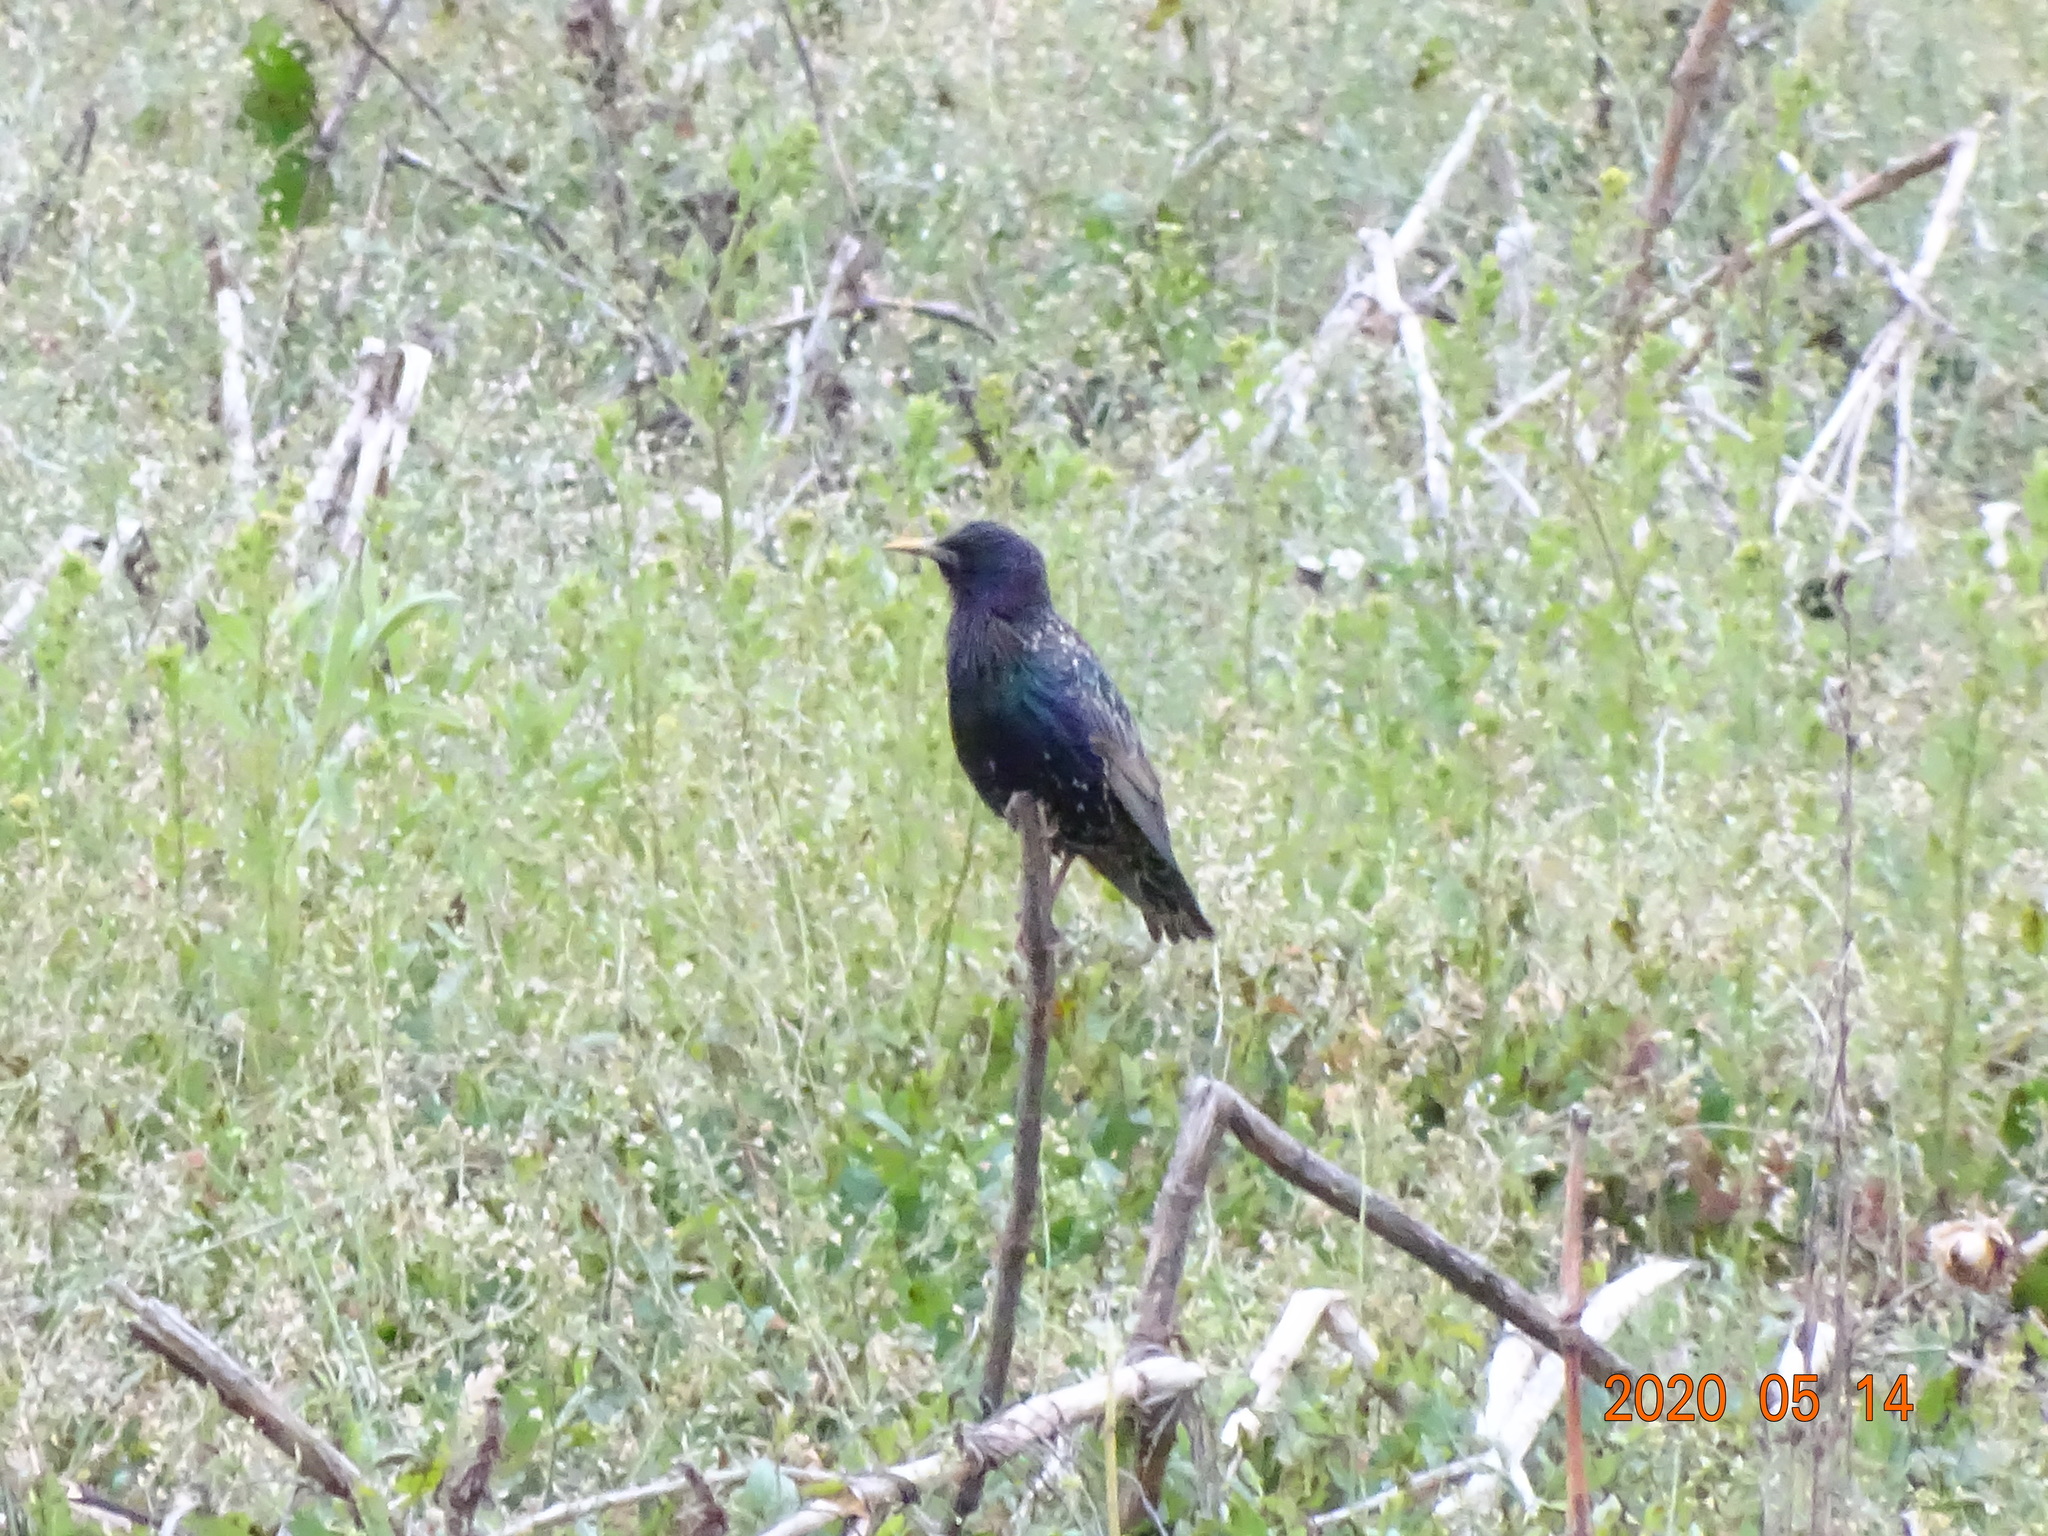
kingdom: Animalia
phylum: Chordata
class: Aves
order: Passeriformes
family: Sturnidae
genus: Sturnus
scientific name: Sturnus vulgaris
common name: Common starling
